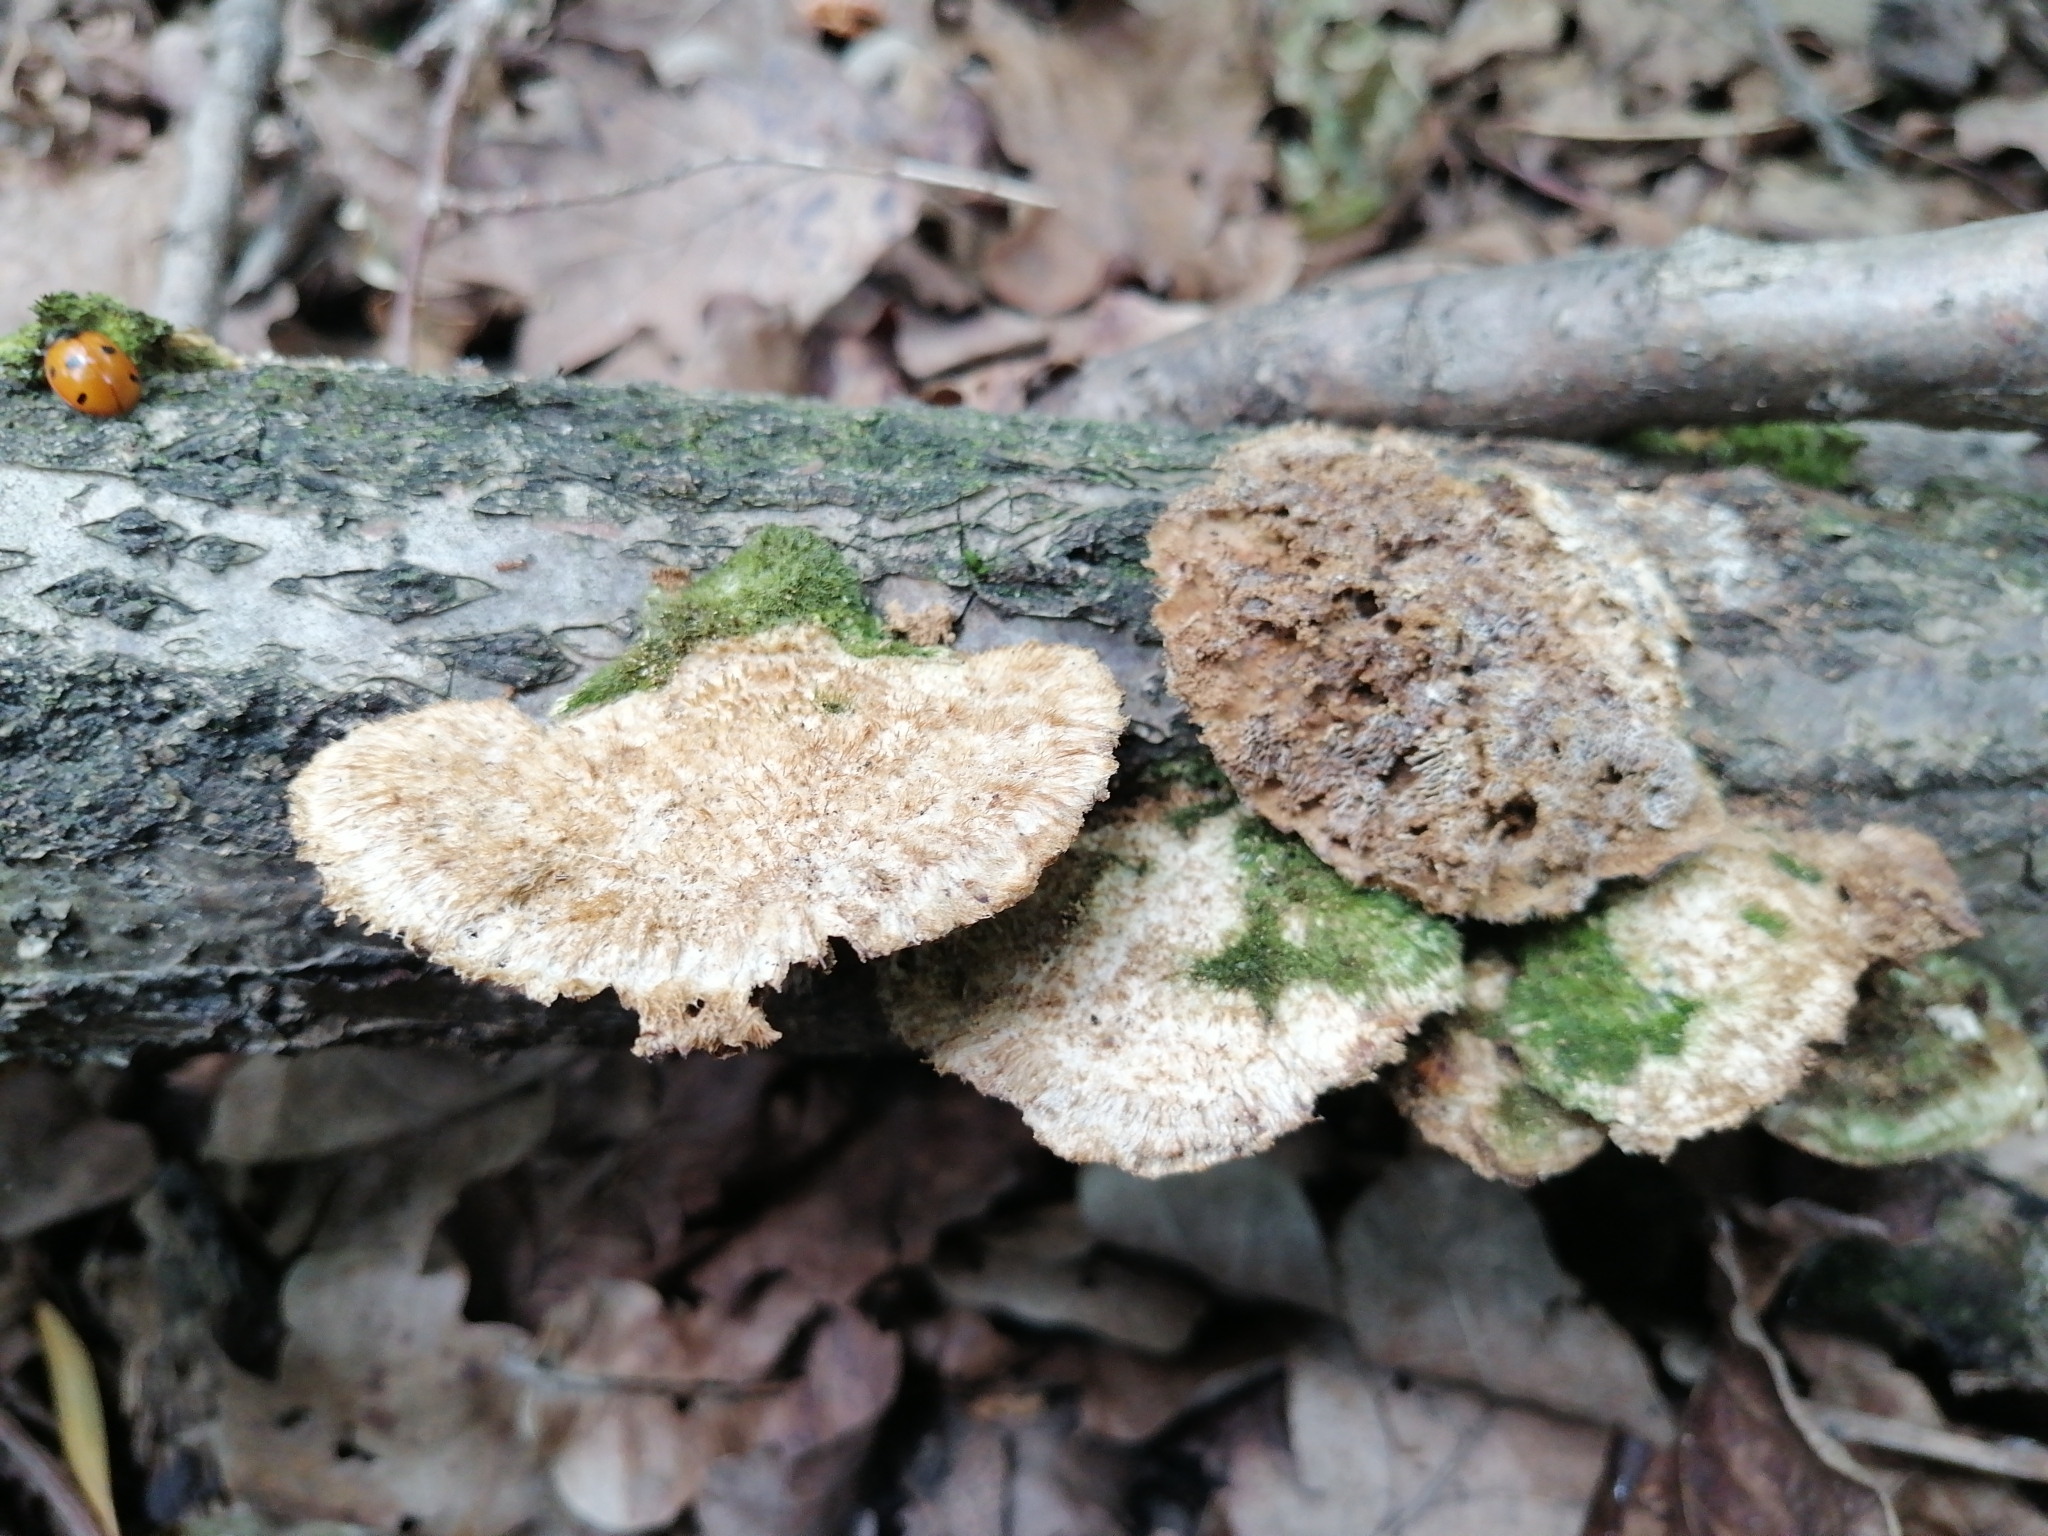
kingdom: Fungi
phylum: Basidiomycota
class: Agaricomycetes
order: Polyporales
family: Polyporaceae
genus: Trametes
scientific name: Trametes trogii
